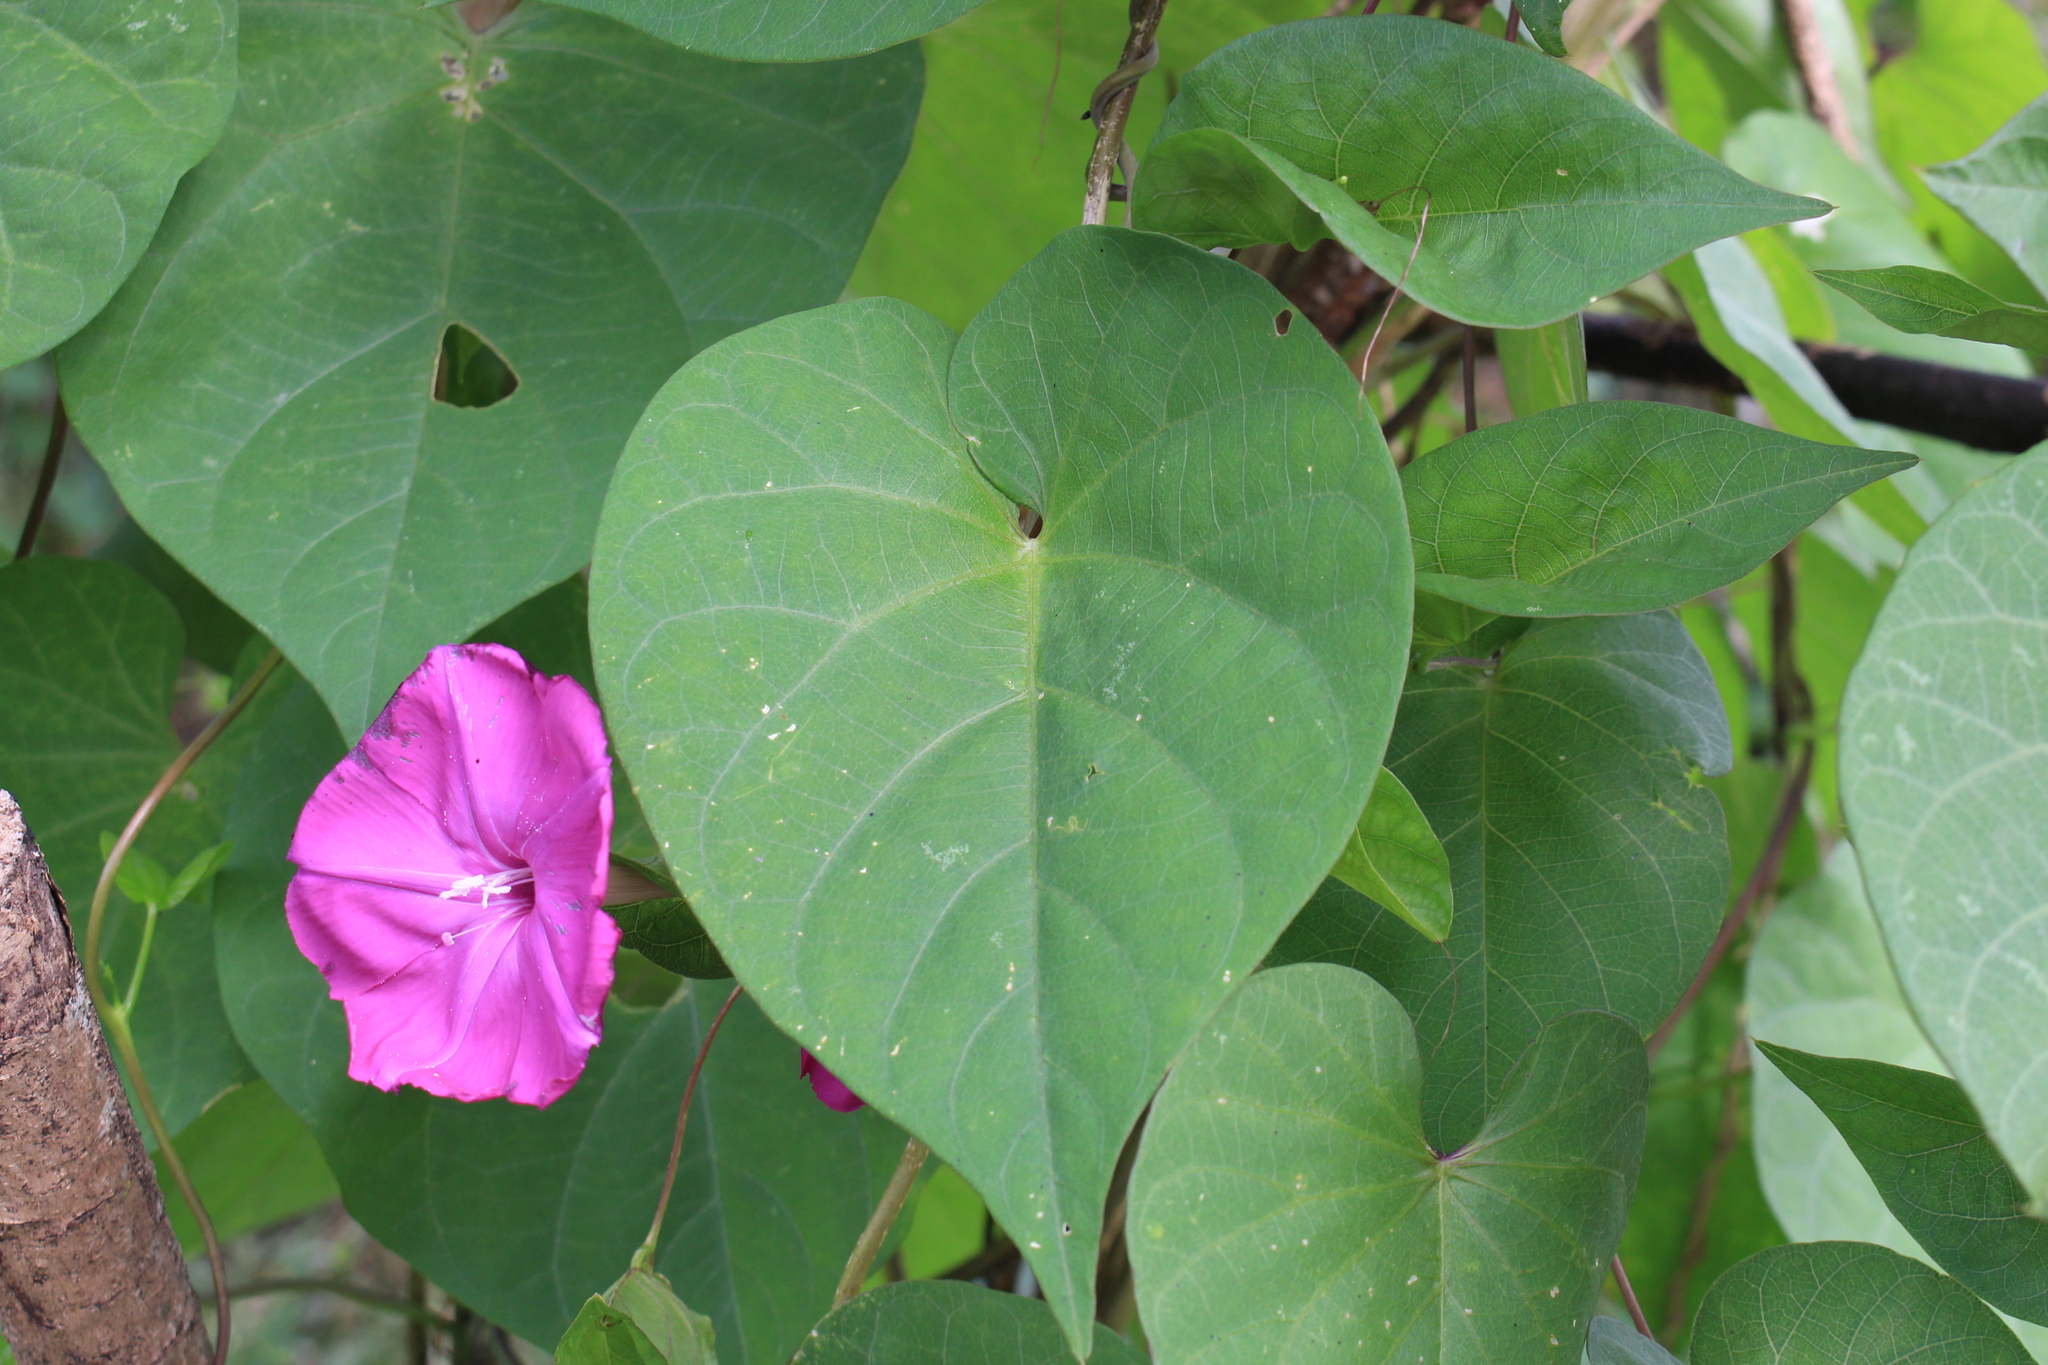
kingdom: Plantae
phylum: Tracheophyta
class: Magnoliopsida
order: Solanales
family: Convolvulaceae
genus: Ipomoea
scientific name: Ipomoea dumosa
